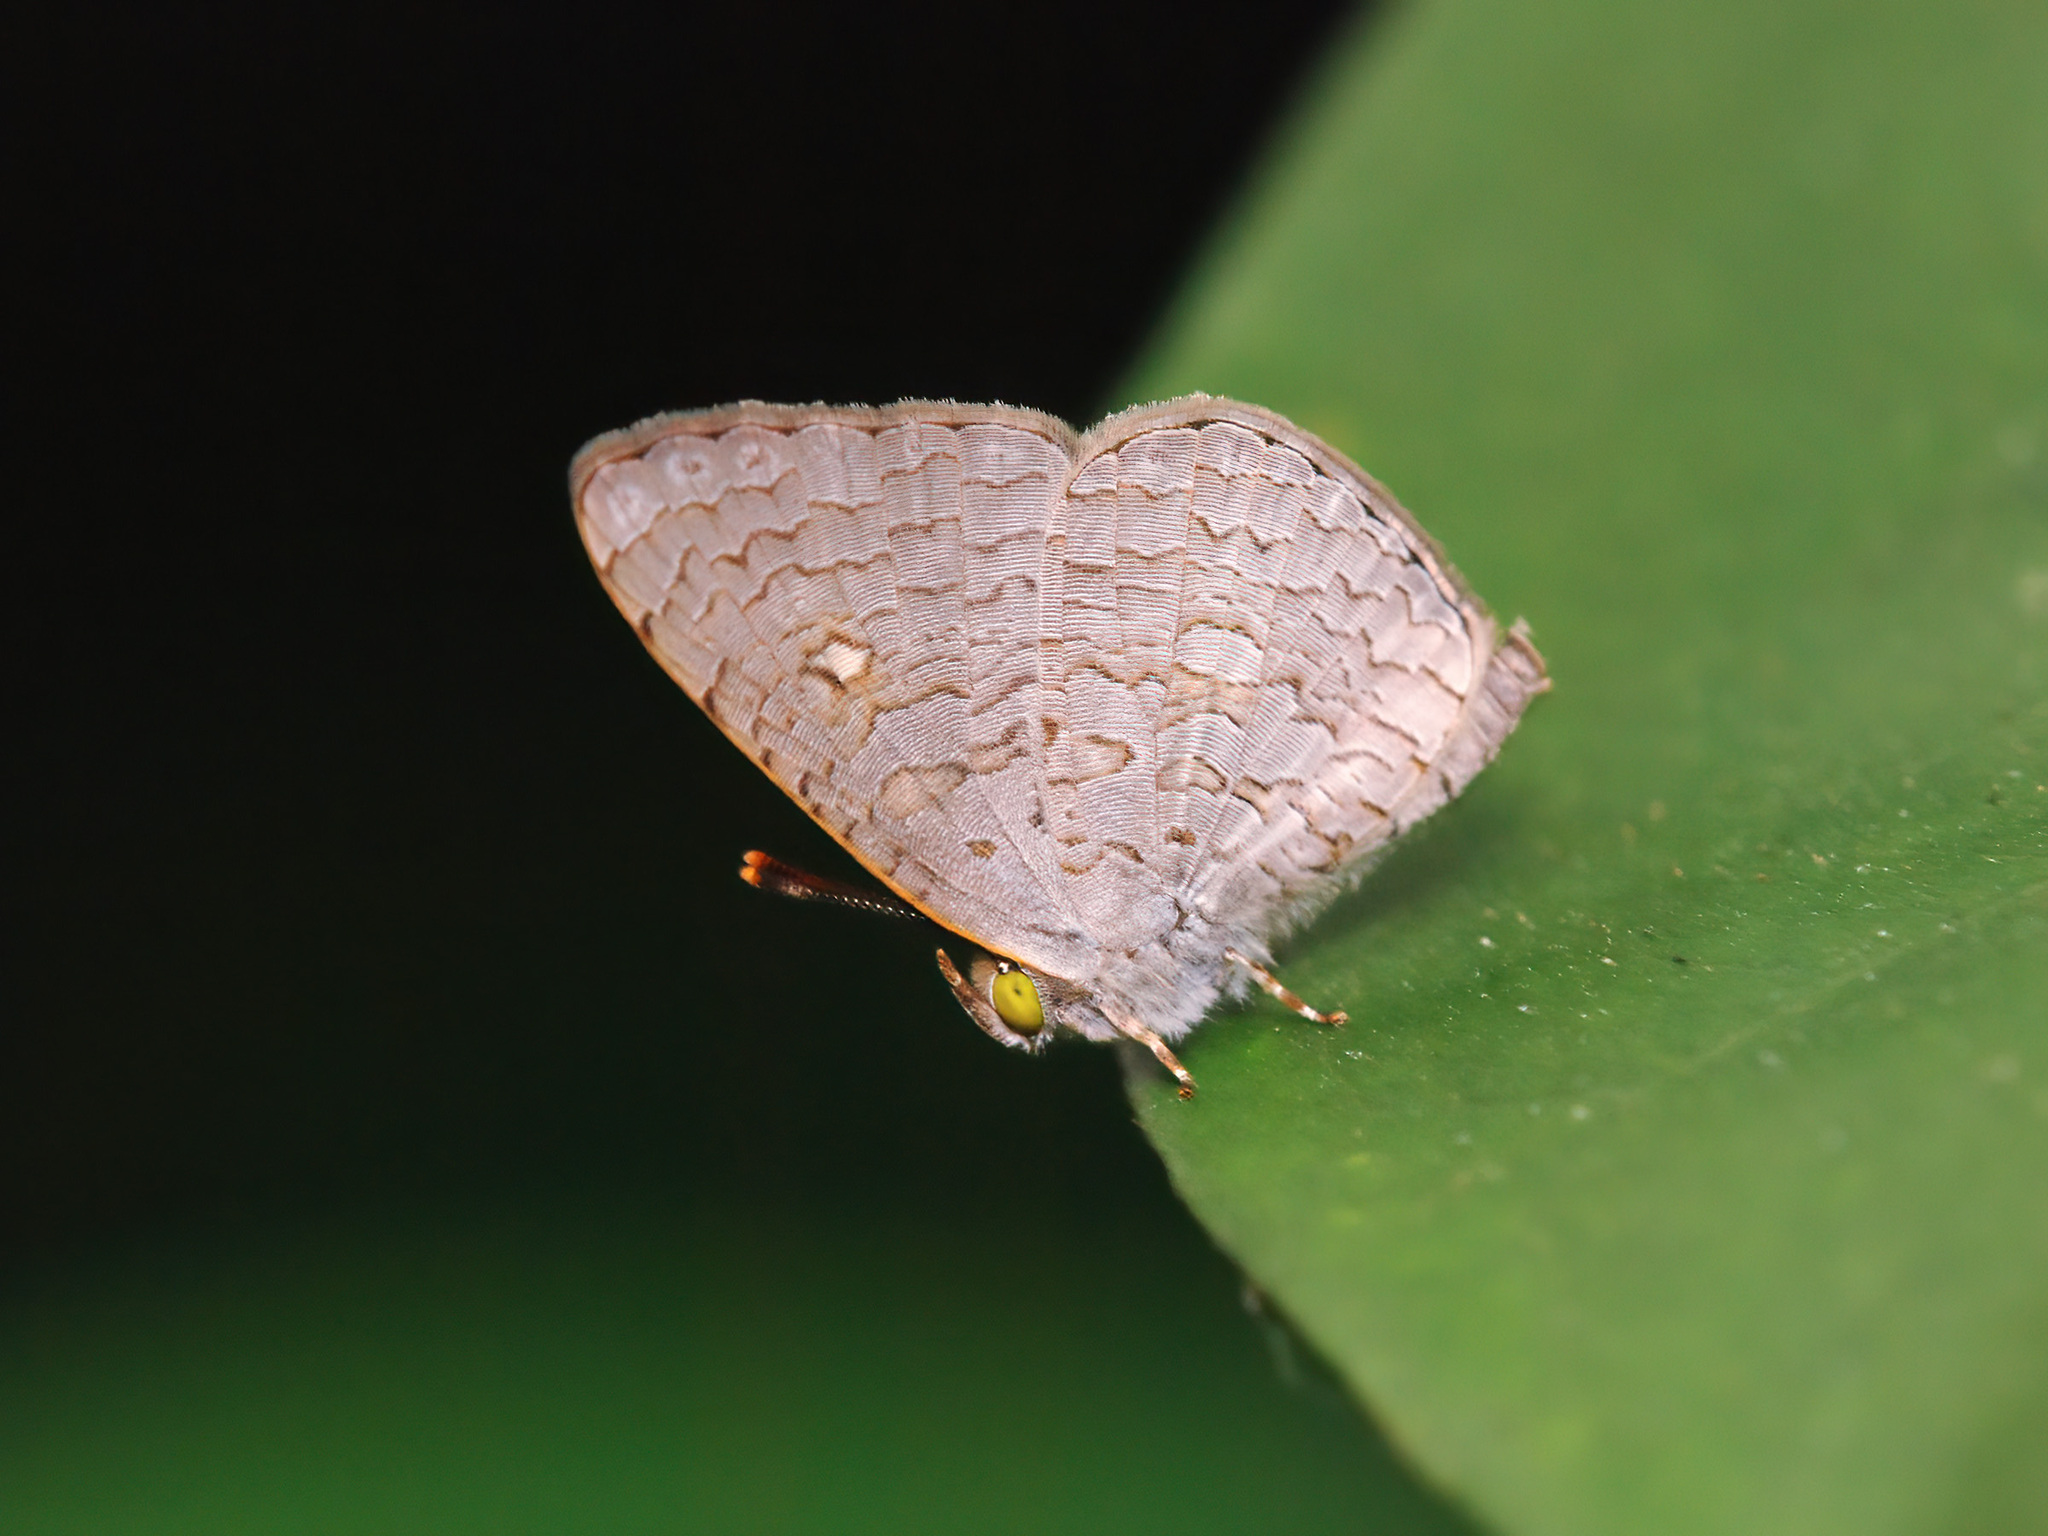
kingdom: Animalia
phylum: Arthropoda
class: Insecta
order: Lepidoptera
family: Lycaenidae
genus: Spalgis
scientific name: Spalgis epius
